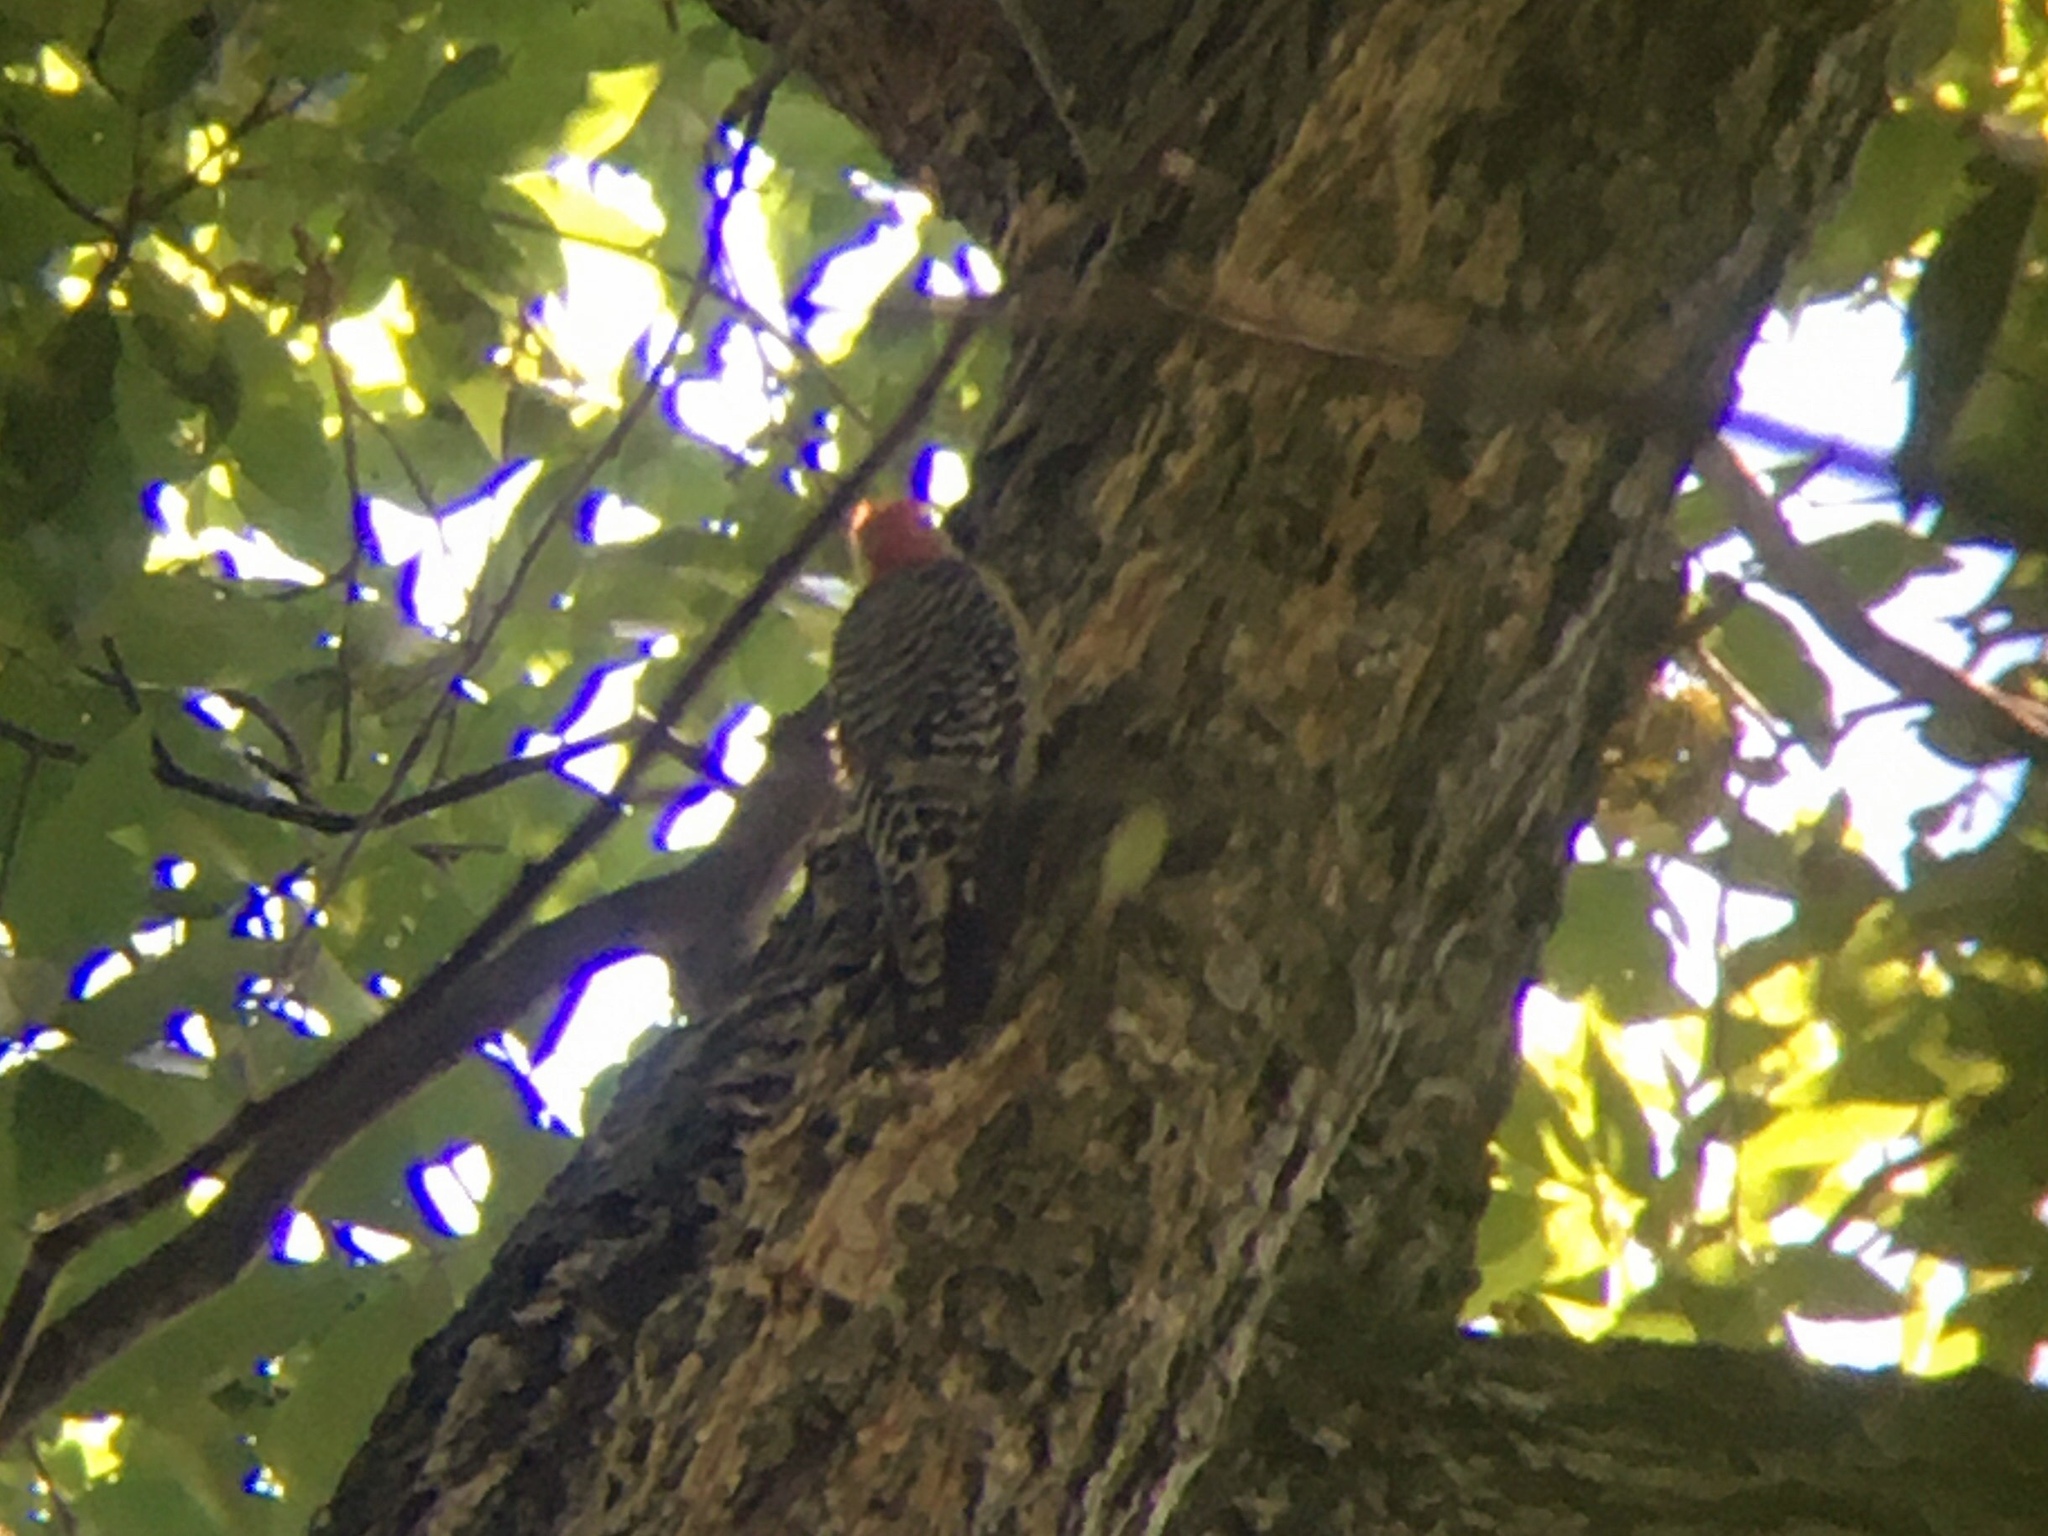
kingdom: Animalia
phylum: Chordata
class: Aves
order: Piciformes
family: Picidae
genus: Melanerpes
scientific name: Melanerpes carolinus
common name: Red-bellied woodpecker
